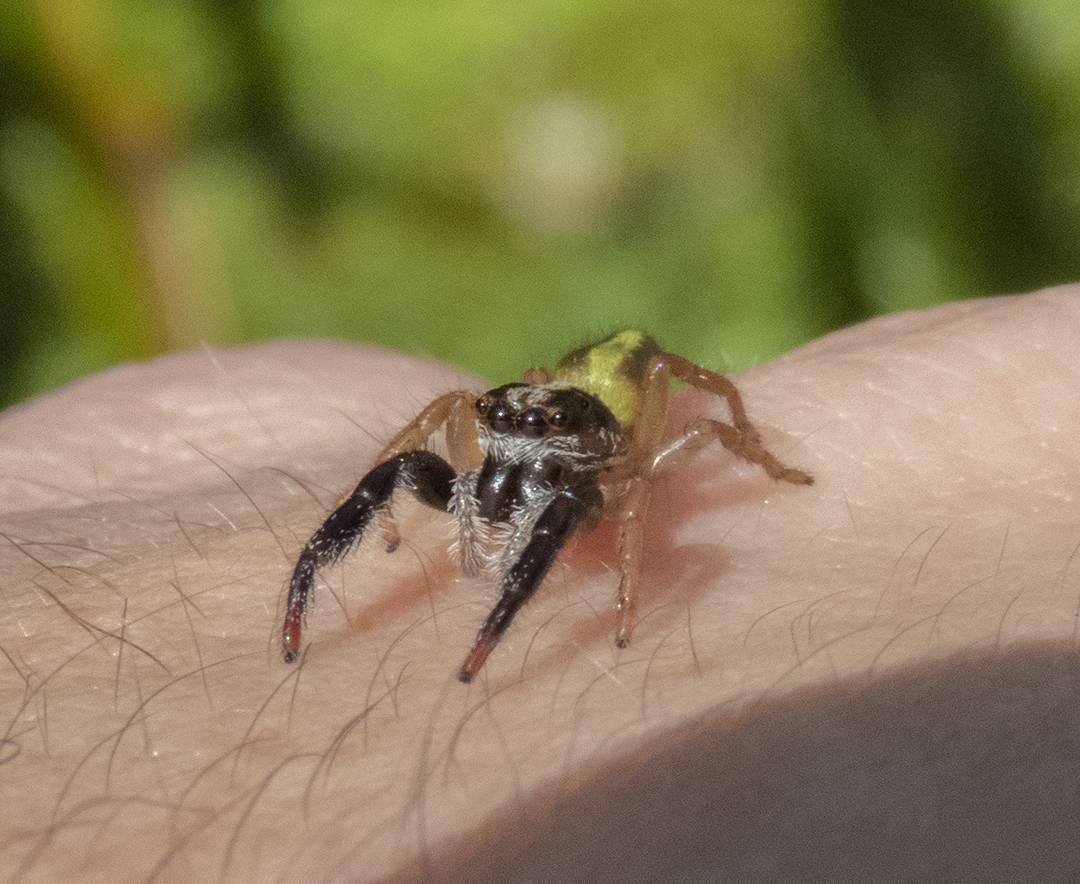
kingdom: Animalia
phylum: Arthropoda
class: Arachnida
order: Araneae
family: Salticidae
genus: Trite
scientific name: Trite planiceps
